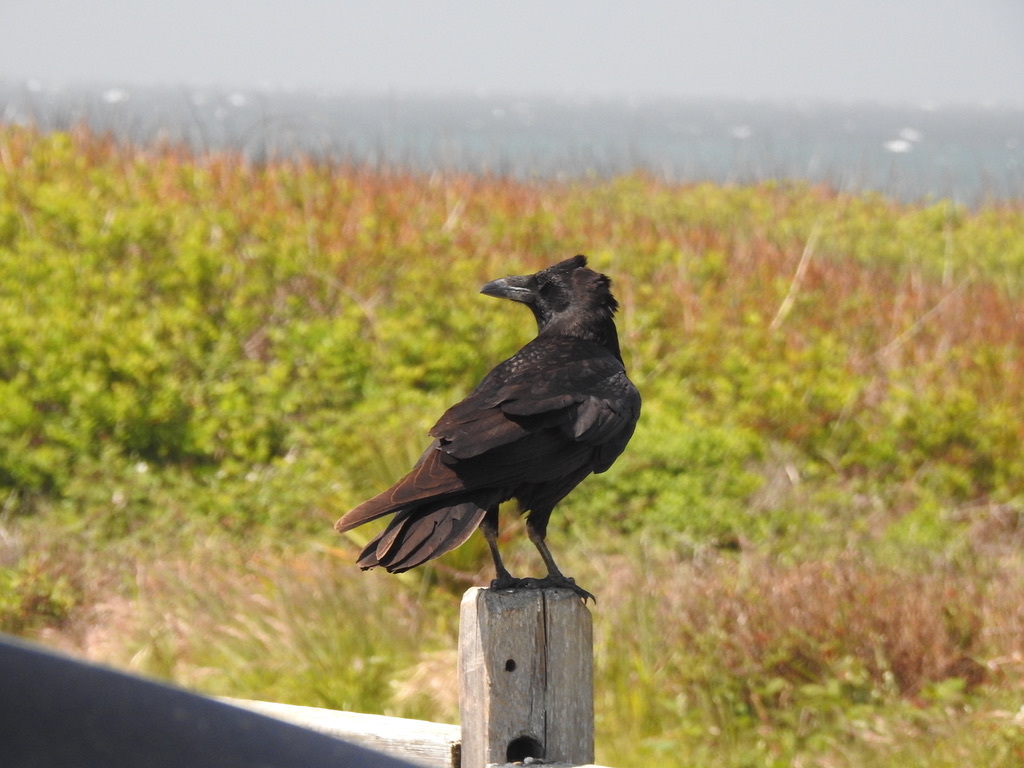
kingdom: Animalia
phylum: Chordata
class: Aves
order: Passeriformes
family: Corvidae
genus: Corvus
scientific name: Corvus corax
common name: Common raven
